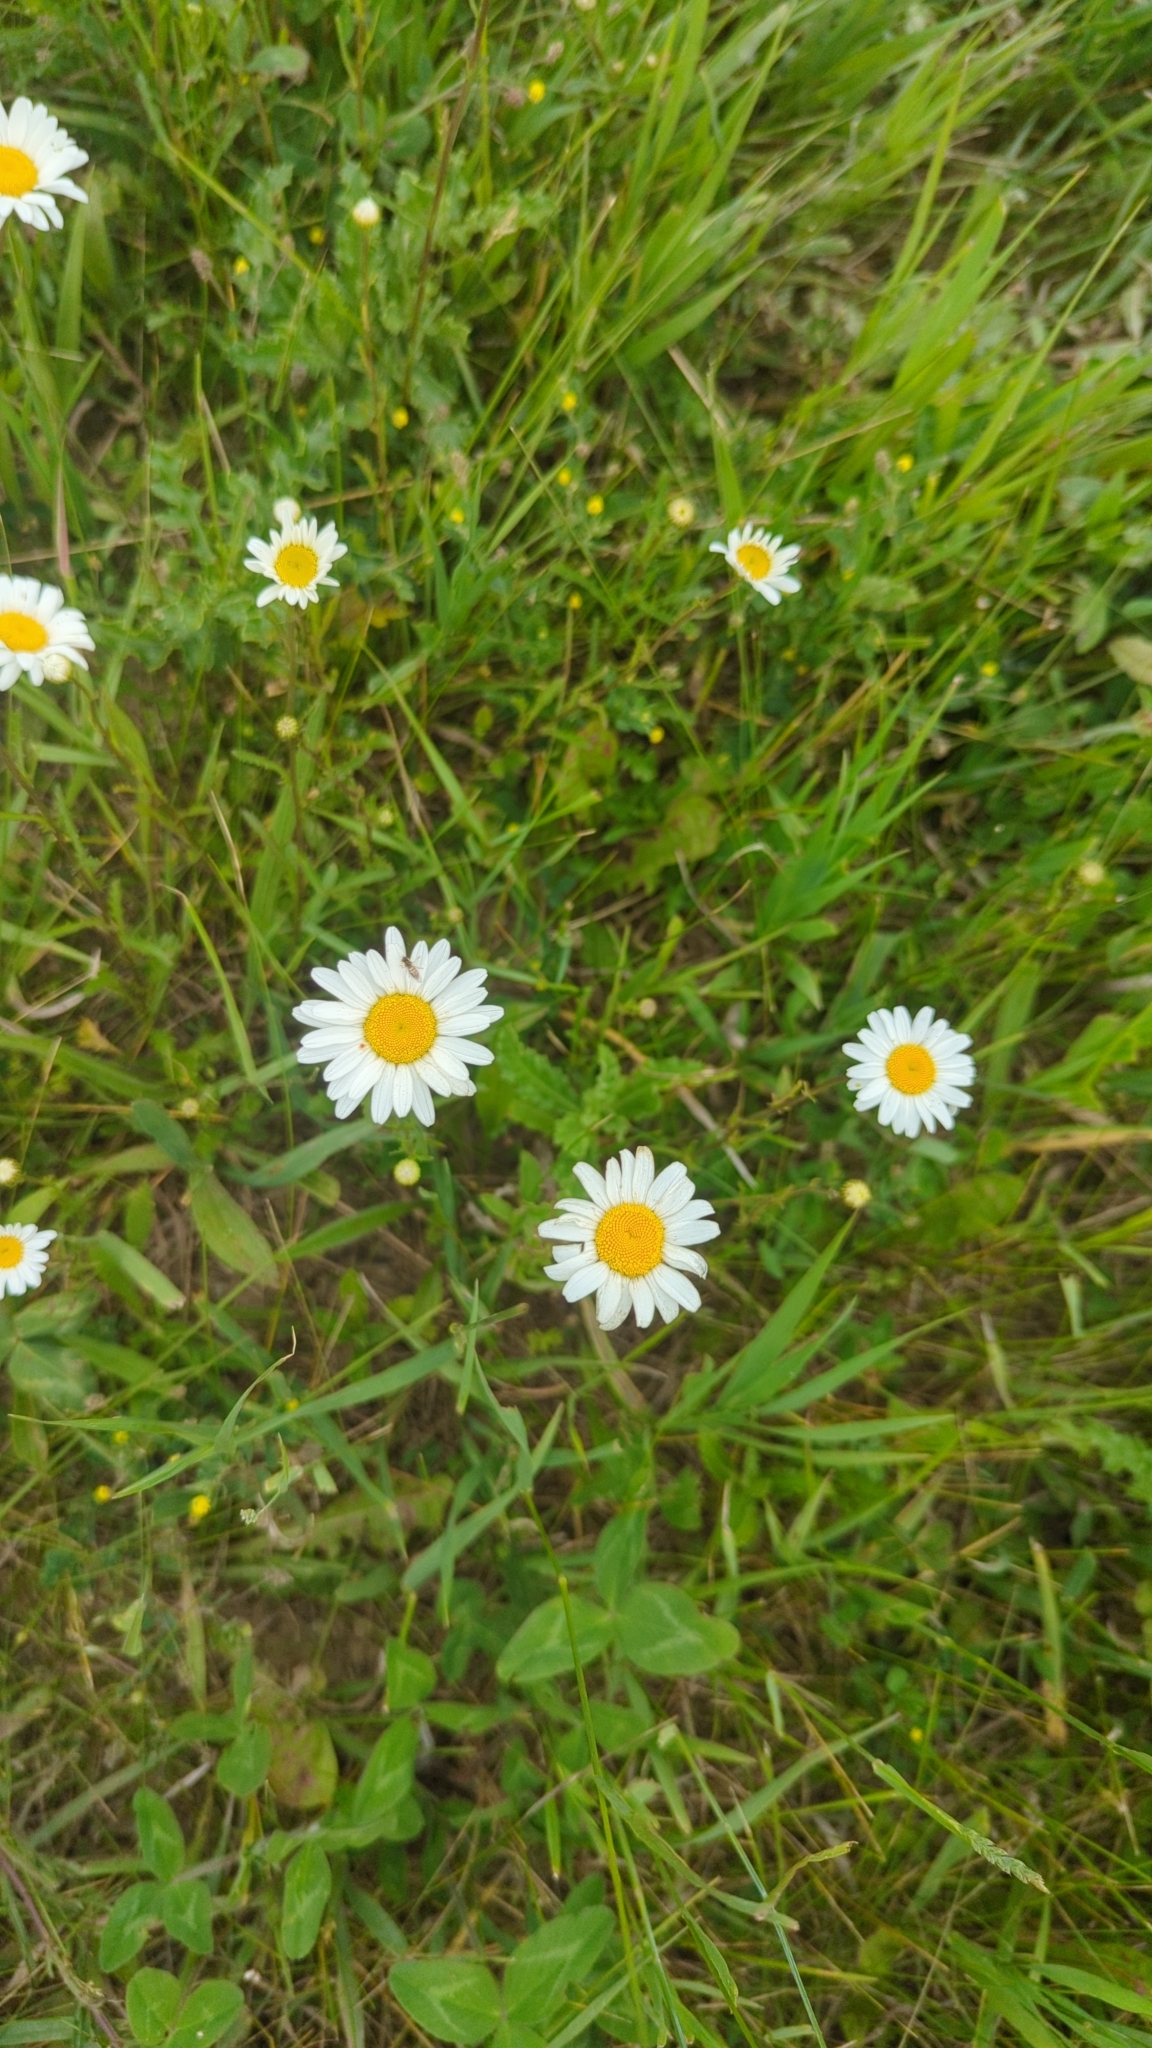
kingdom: Plantae
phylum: Tracheophyta
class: Magnoliopsida
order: Asterales
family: Asteraceae
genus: Leucanthemum
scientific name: Leucanthemum vulgare
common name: Oxeye daisy
